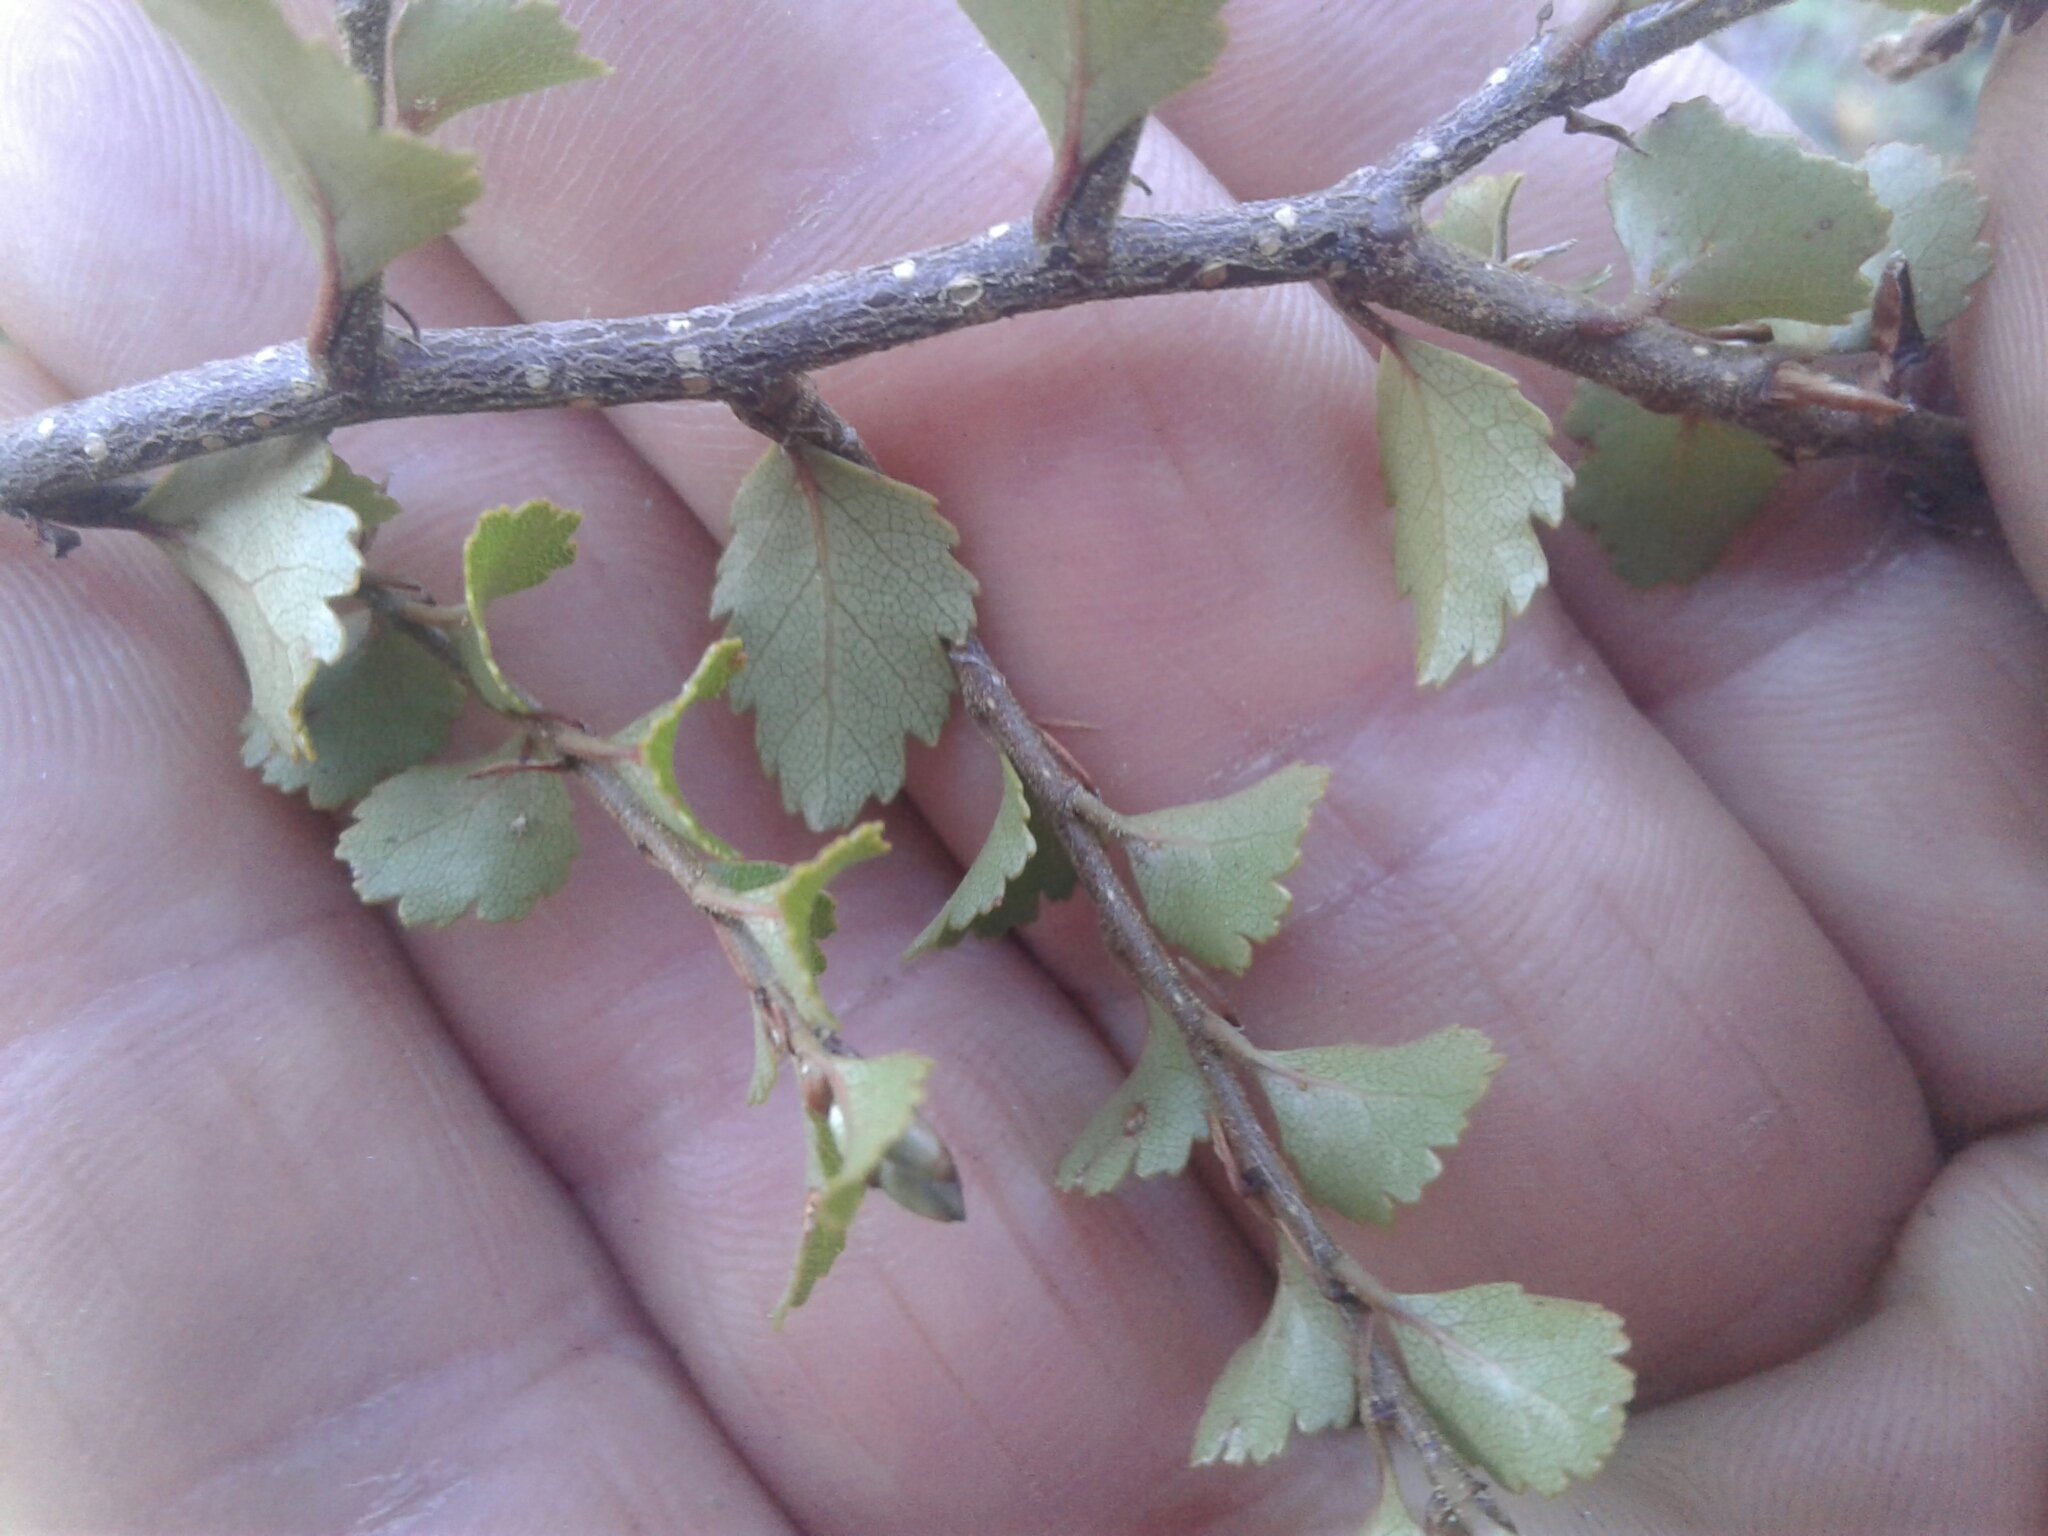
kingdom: Plantae
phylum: Tracheophyta
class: Magnoliopsida
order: Fagales
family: Nothofagaceae
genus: Nothofagus
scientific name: Nothofagus menziesii
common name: Silver beech
